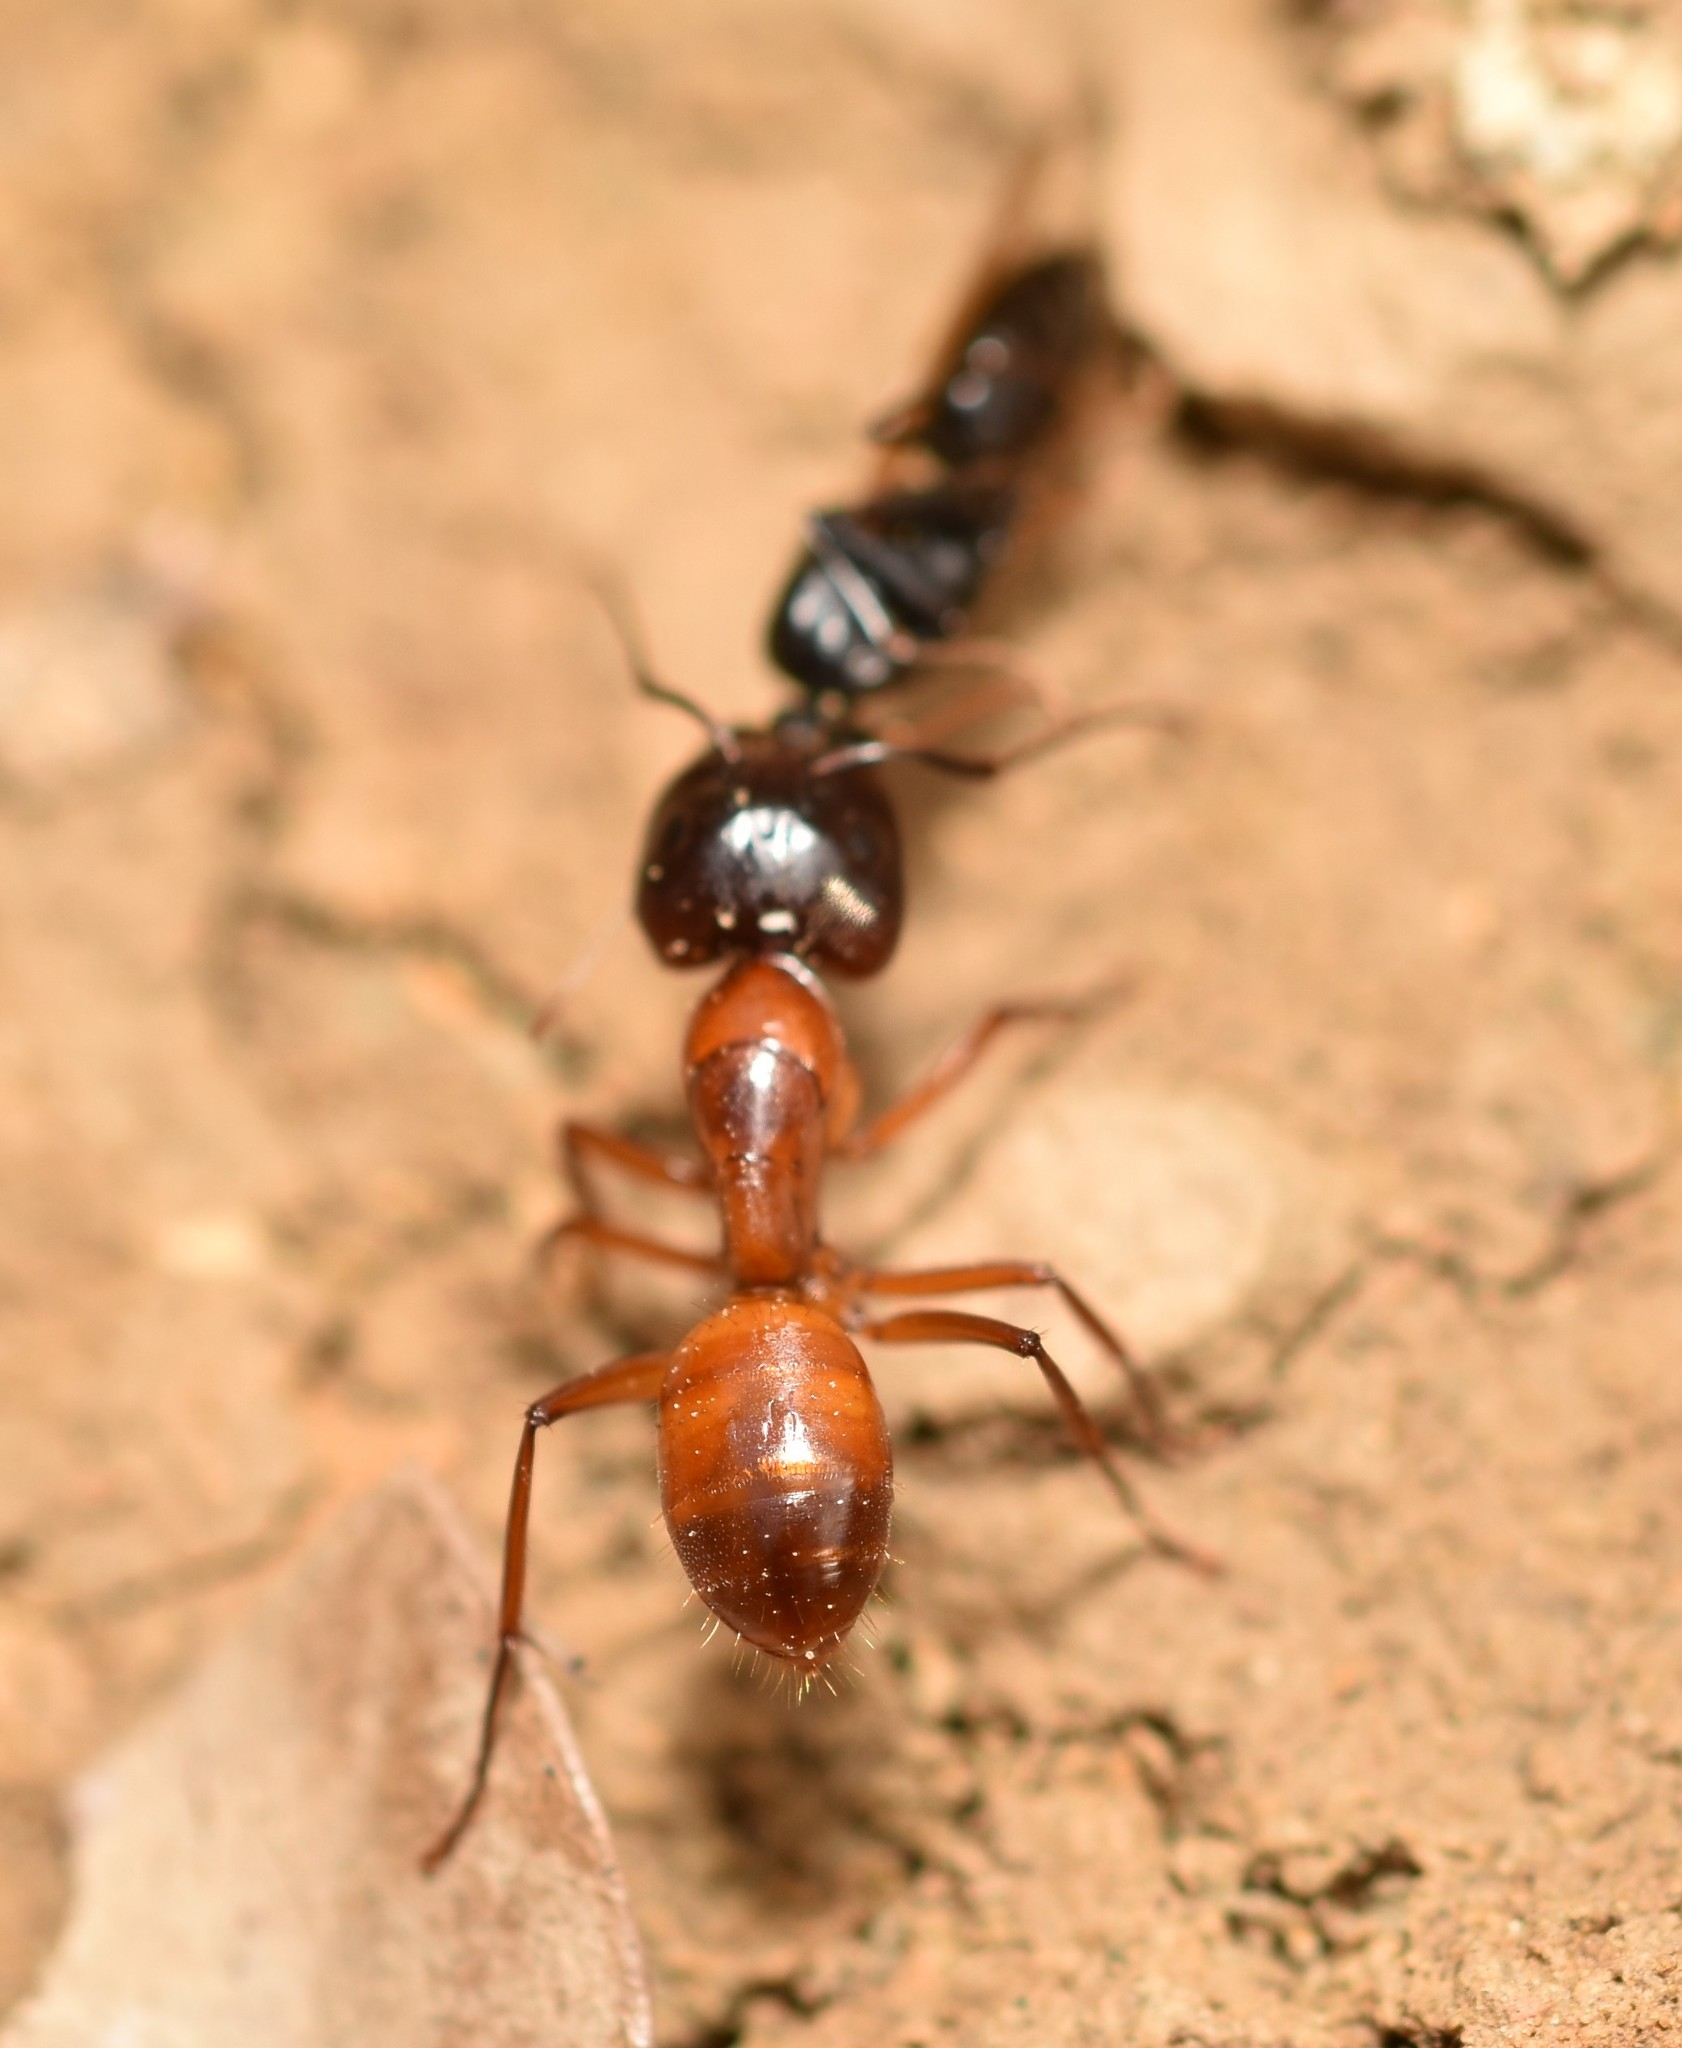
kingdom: Animalia
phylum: Arthropoda
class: Insecta
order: Hymenoptera
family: Formicidae
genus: Camponotus
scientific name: Camponotus sansabeanus
